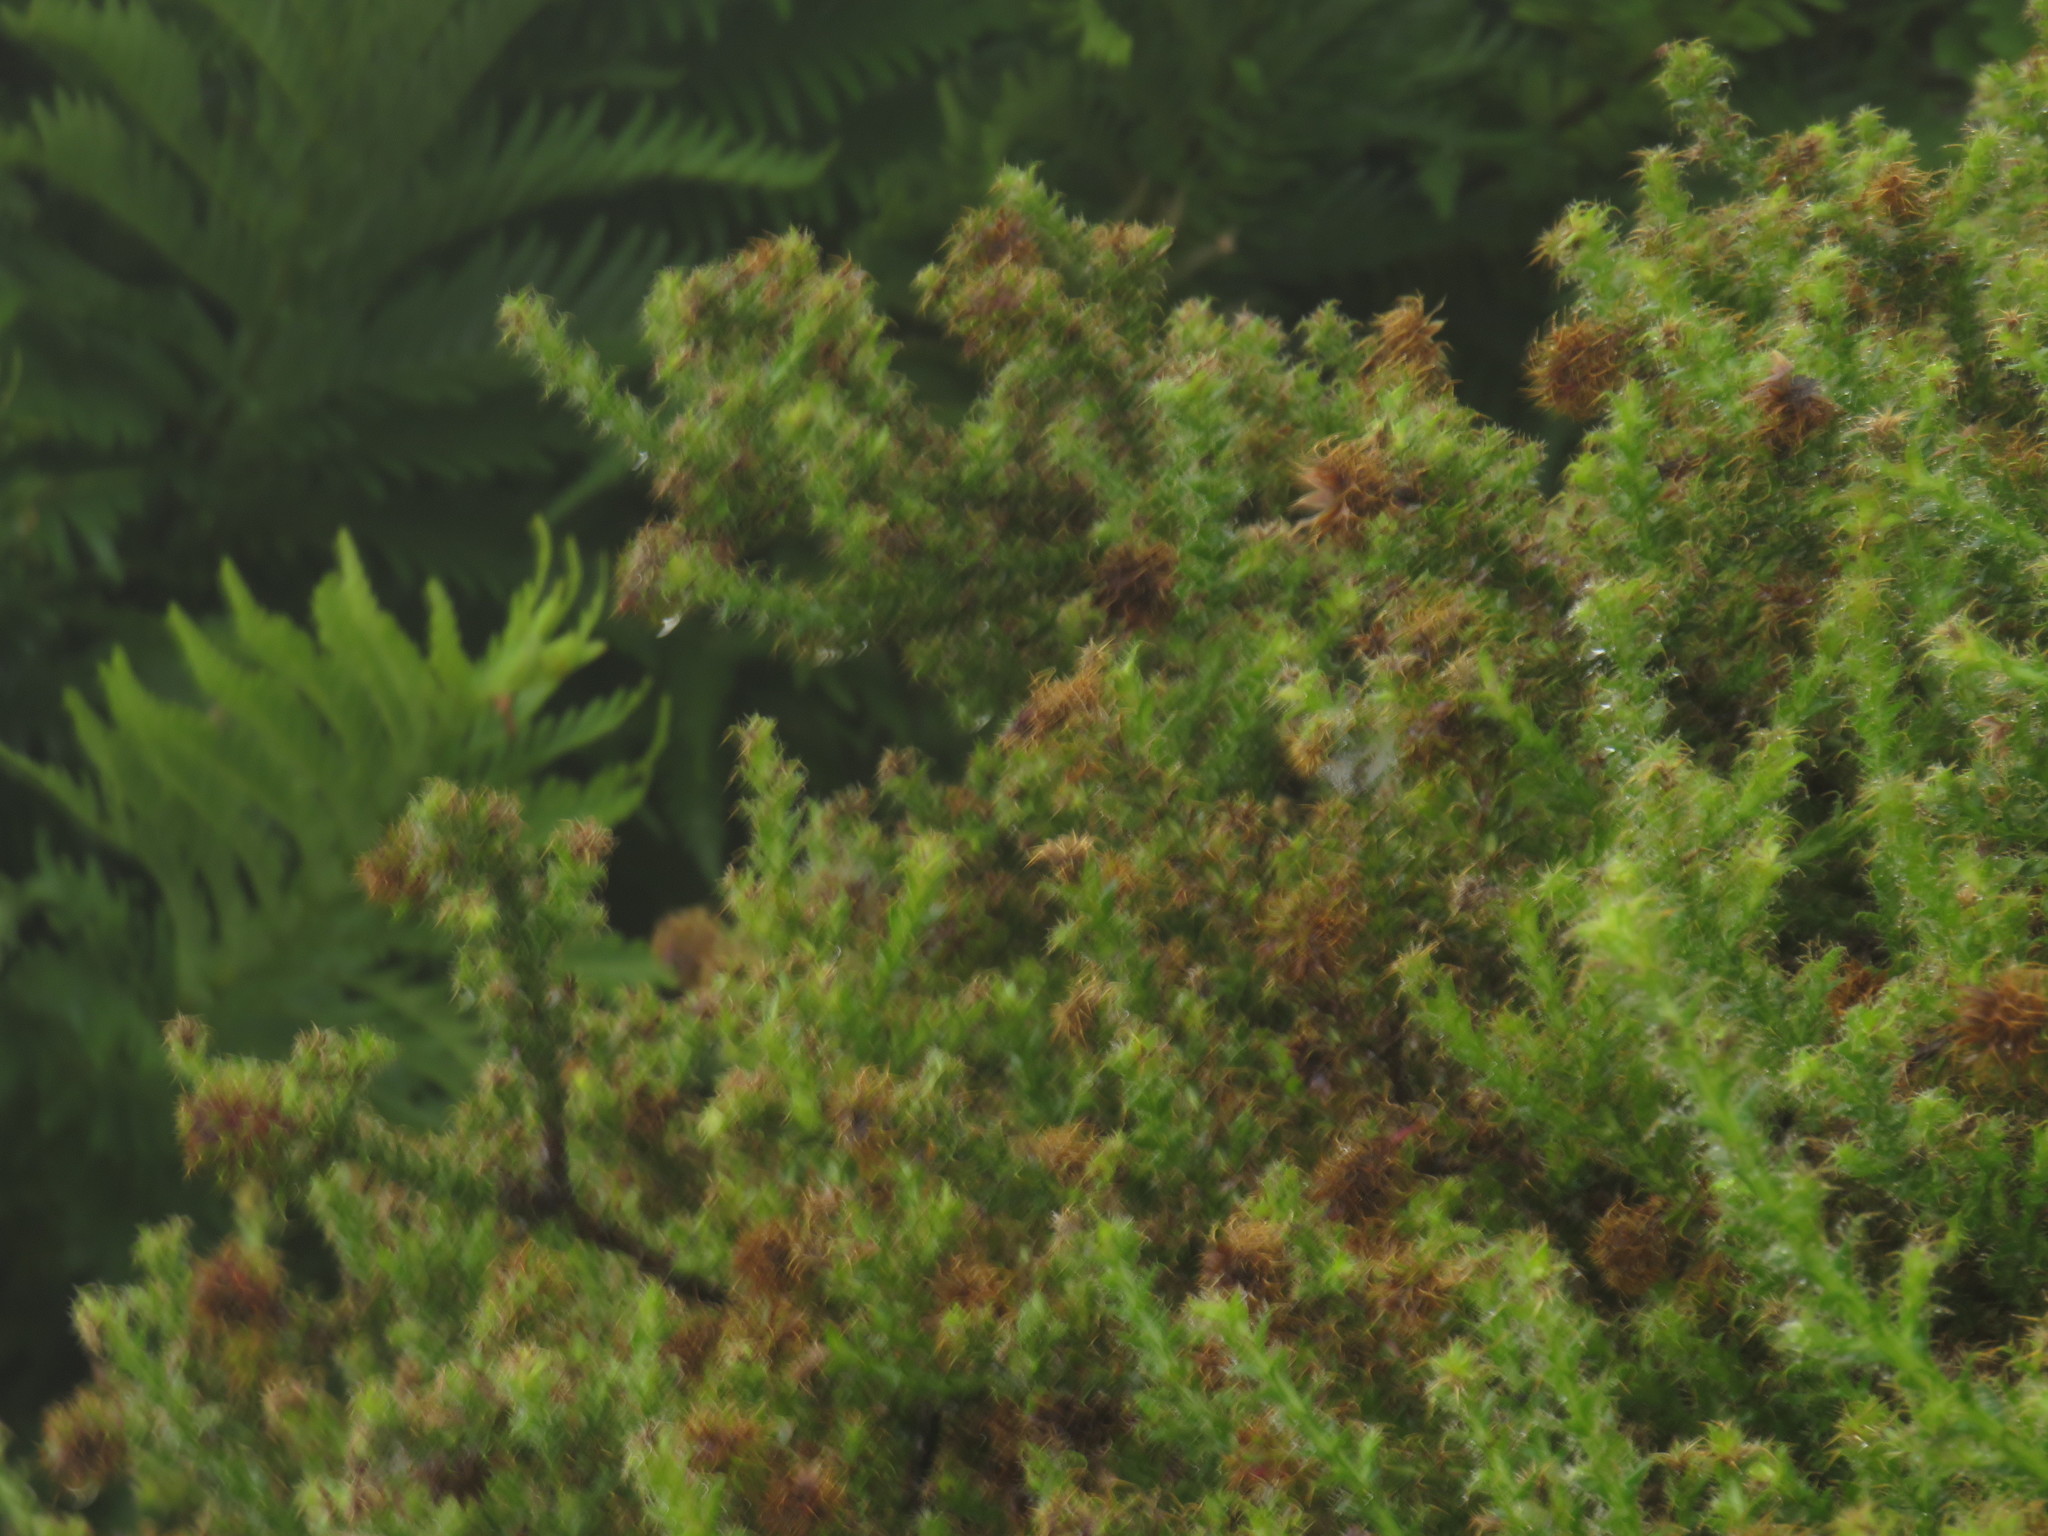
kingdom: Plantae
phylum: Tracheophyta
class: Magnoliopsida
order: Asterales
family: Asteraceae
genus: Cullumia
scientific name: Cullumia reticulata
